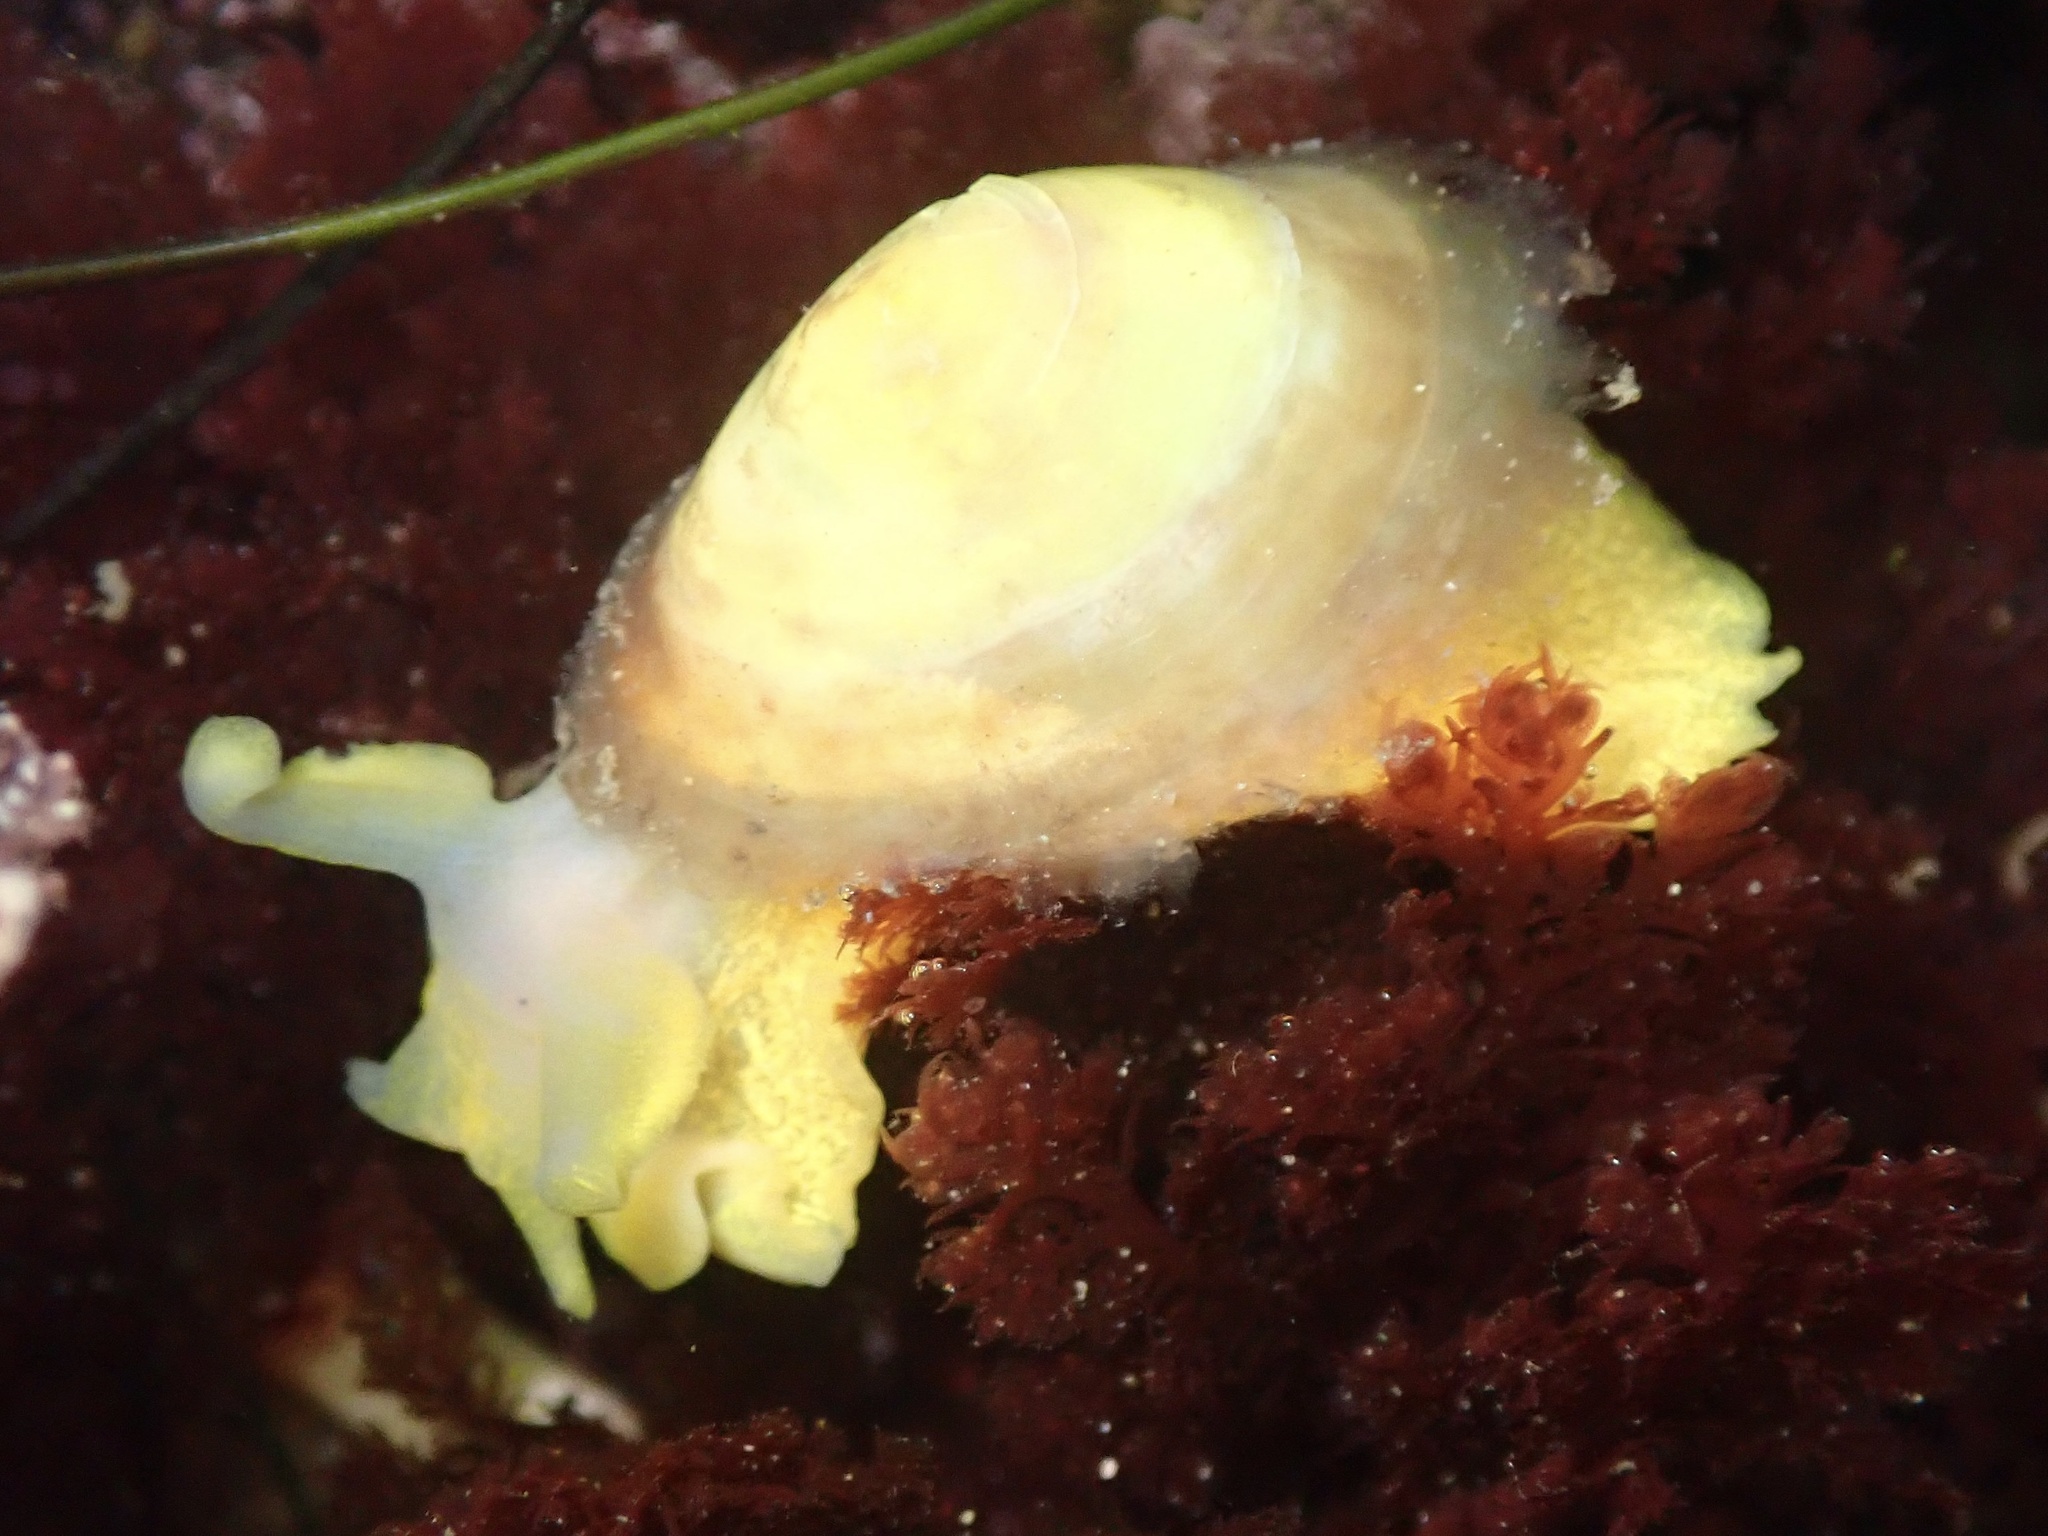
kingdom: Animalia
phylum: Mollusca
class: Gastropoda
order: Umbraculida
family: Tylodinidae
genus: Tylodina
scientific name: Tylodina fungina
